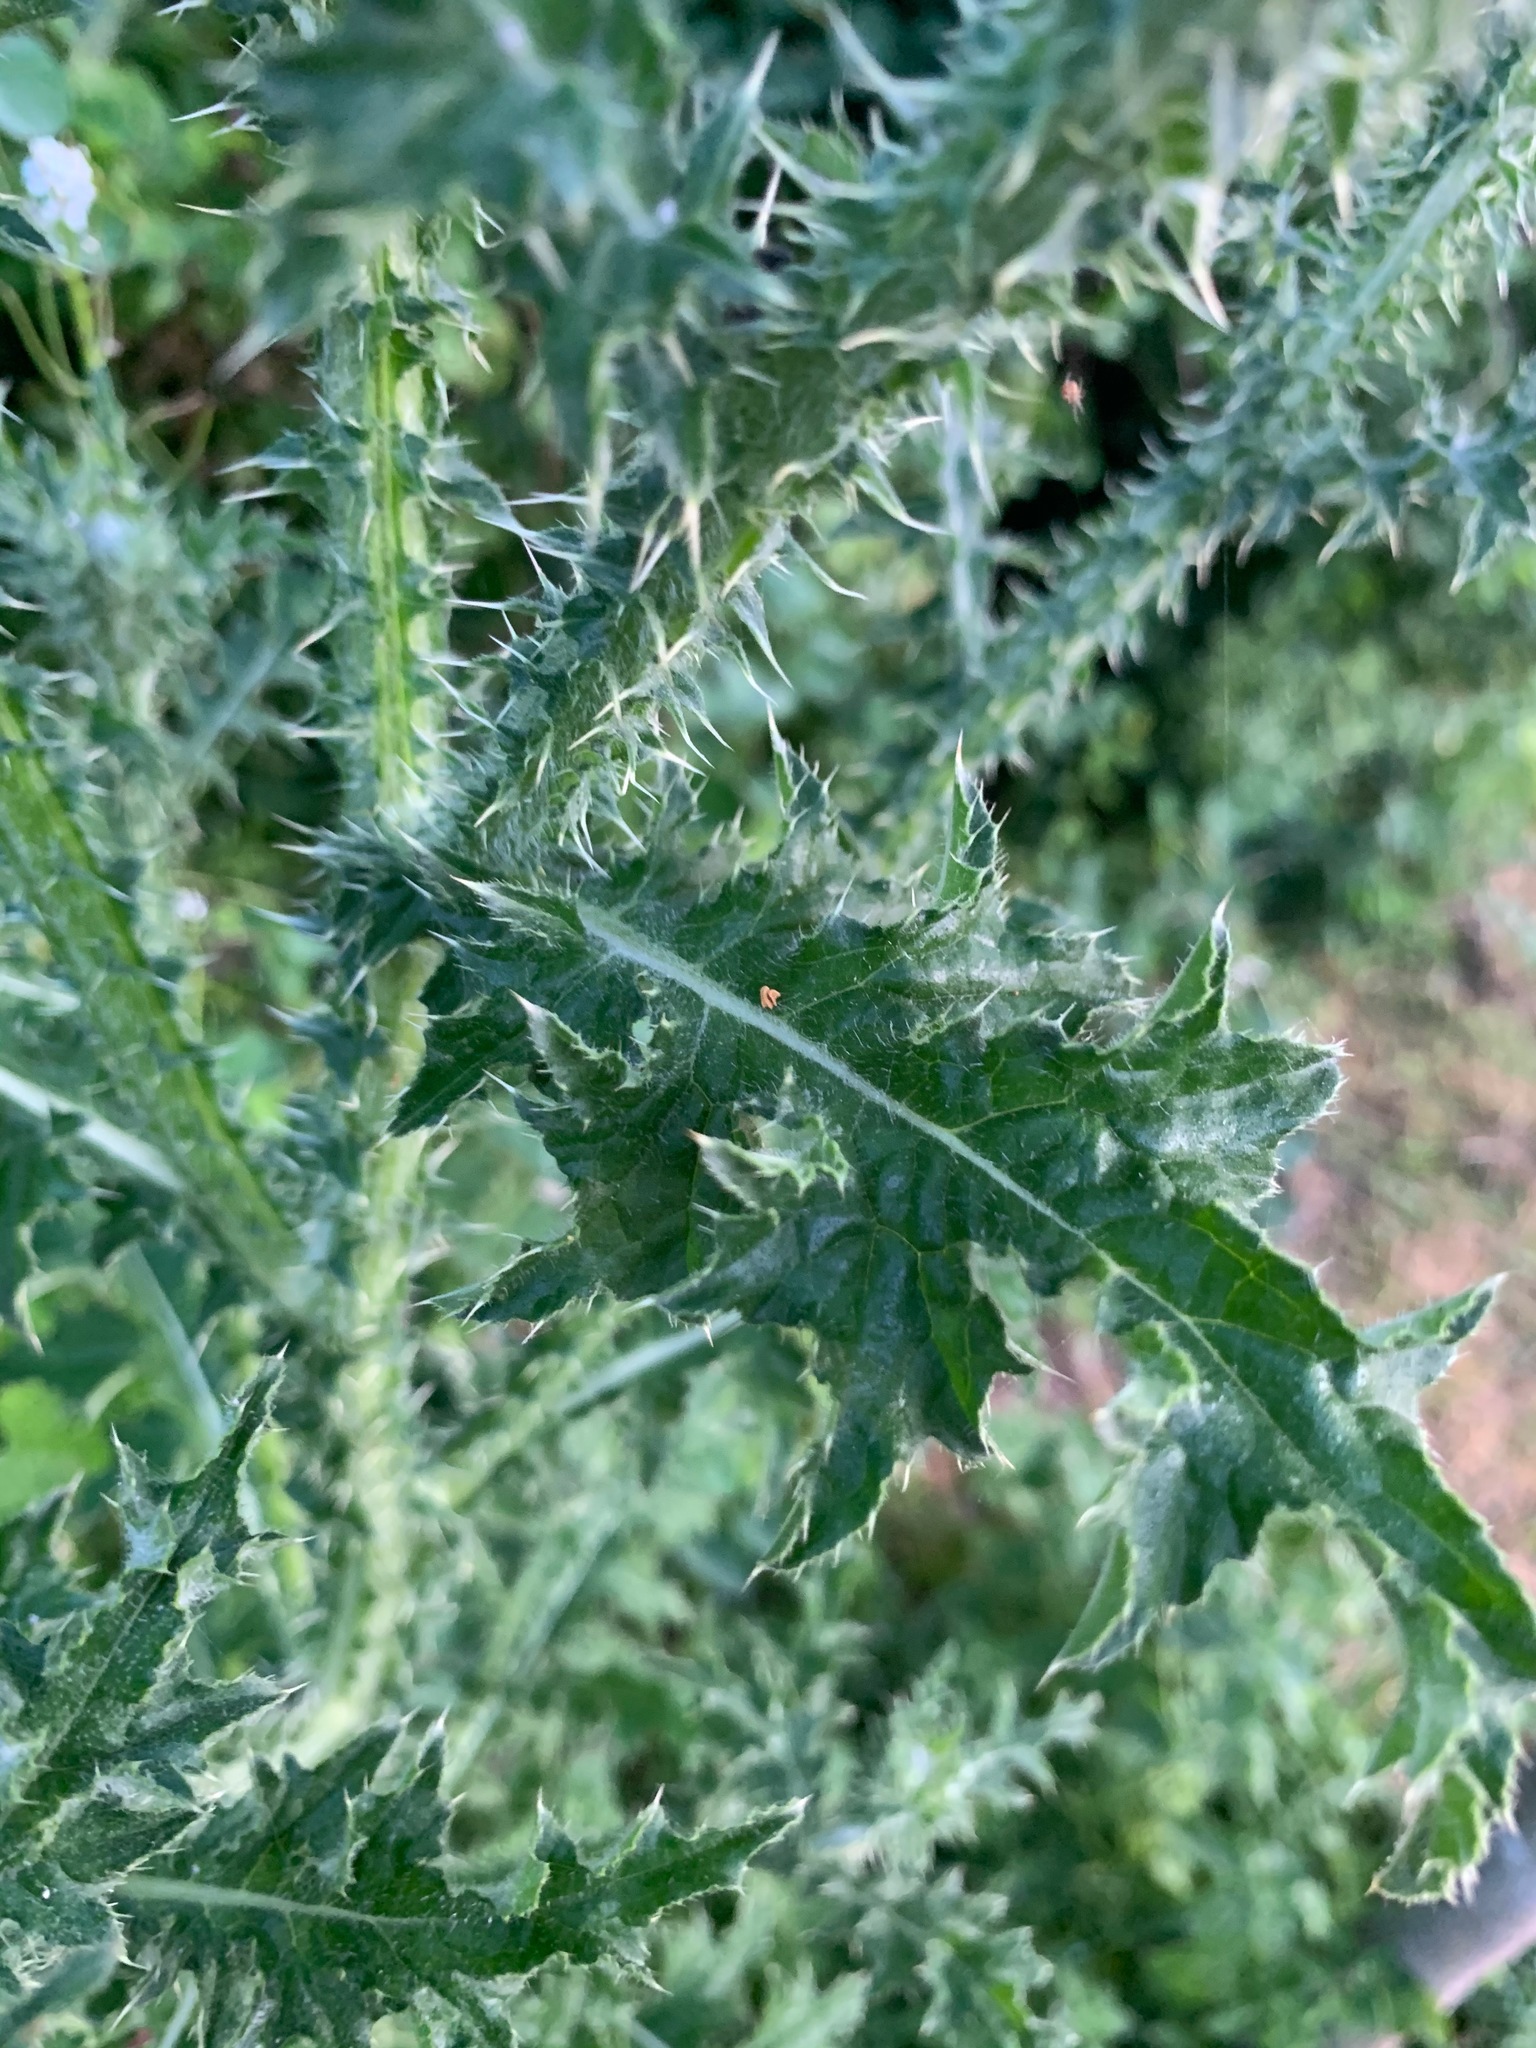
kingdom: Plantae
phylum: Tracheophyta
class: Magnoliopsida
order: Asterales
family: Asteraceae
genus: Carduus
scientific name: Carduus crispus
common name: Welted thistle
